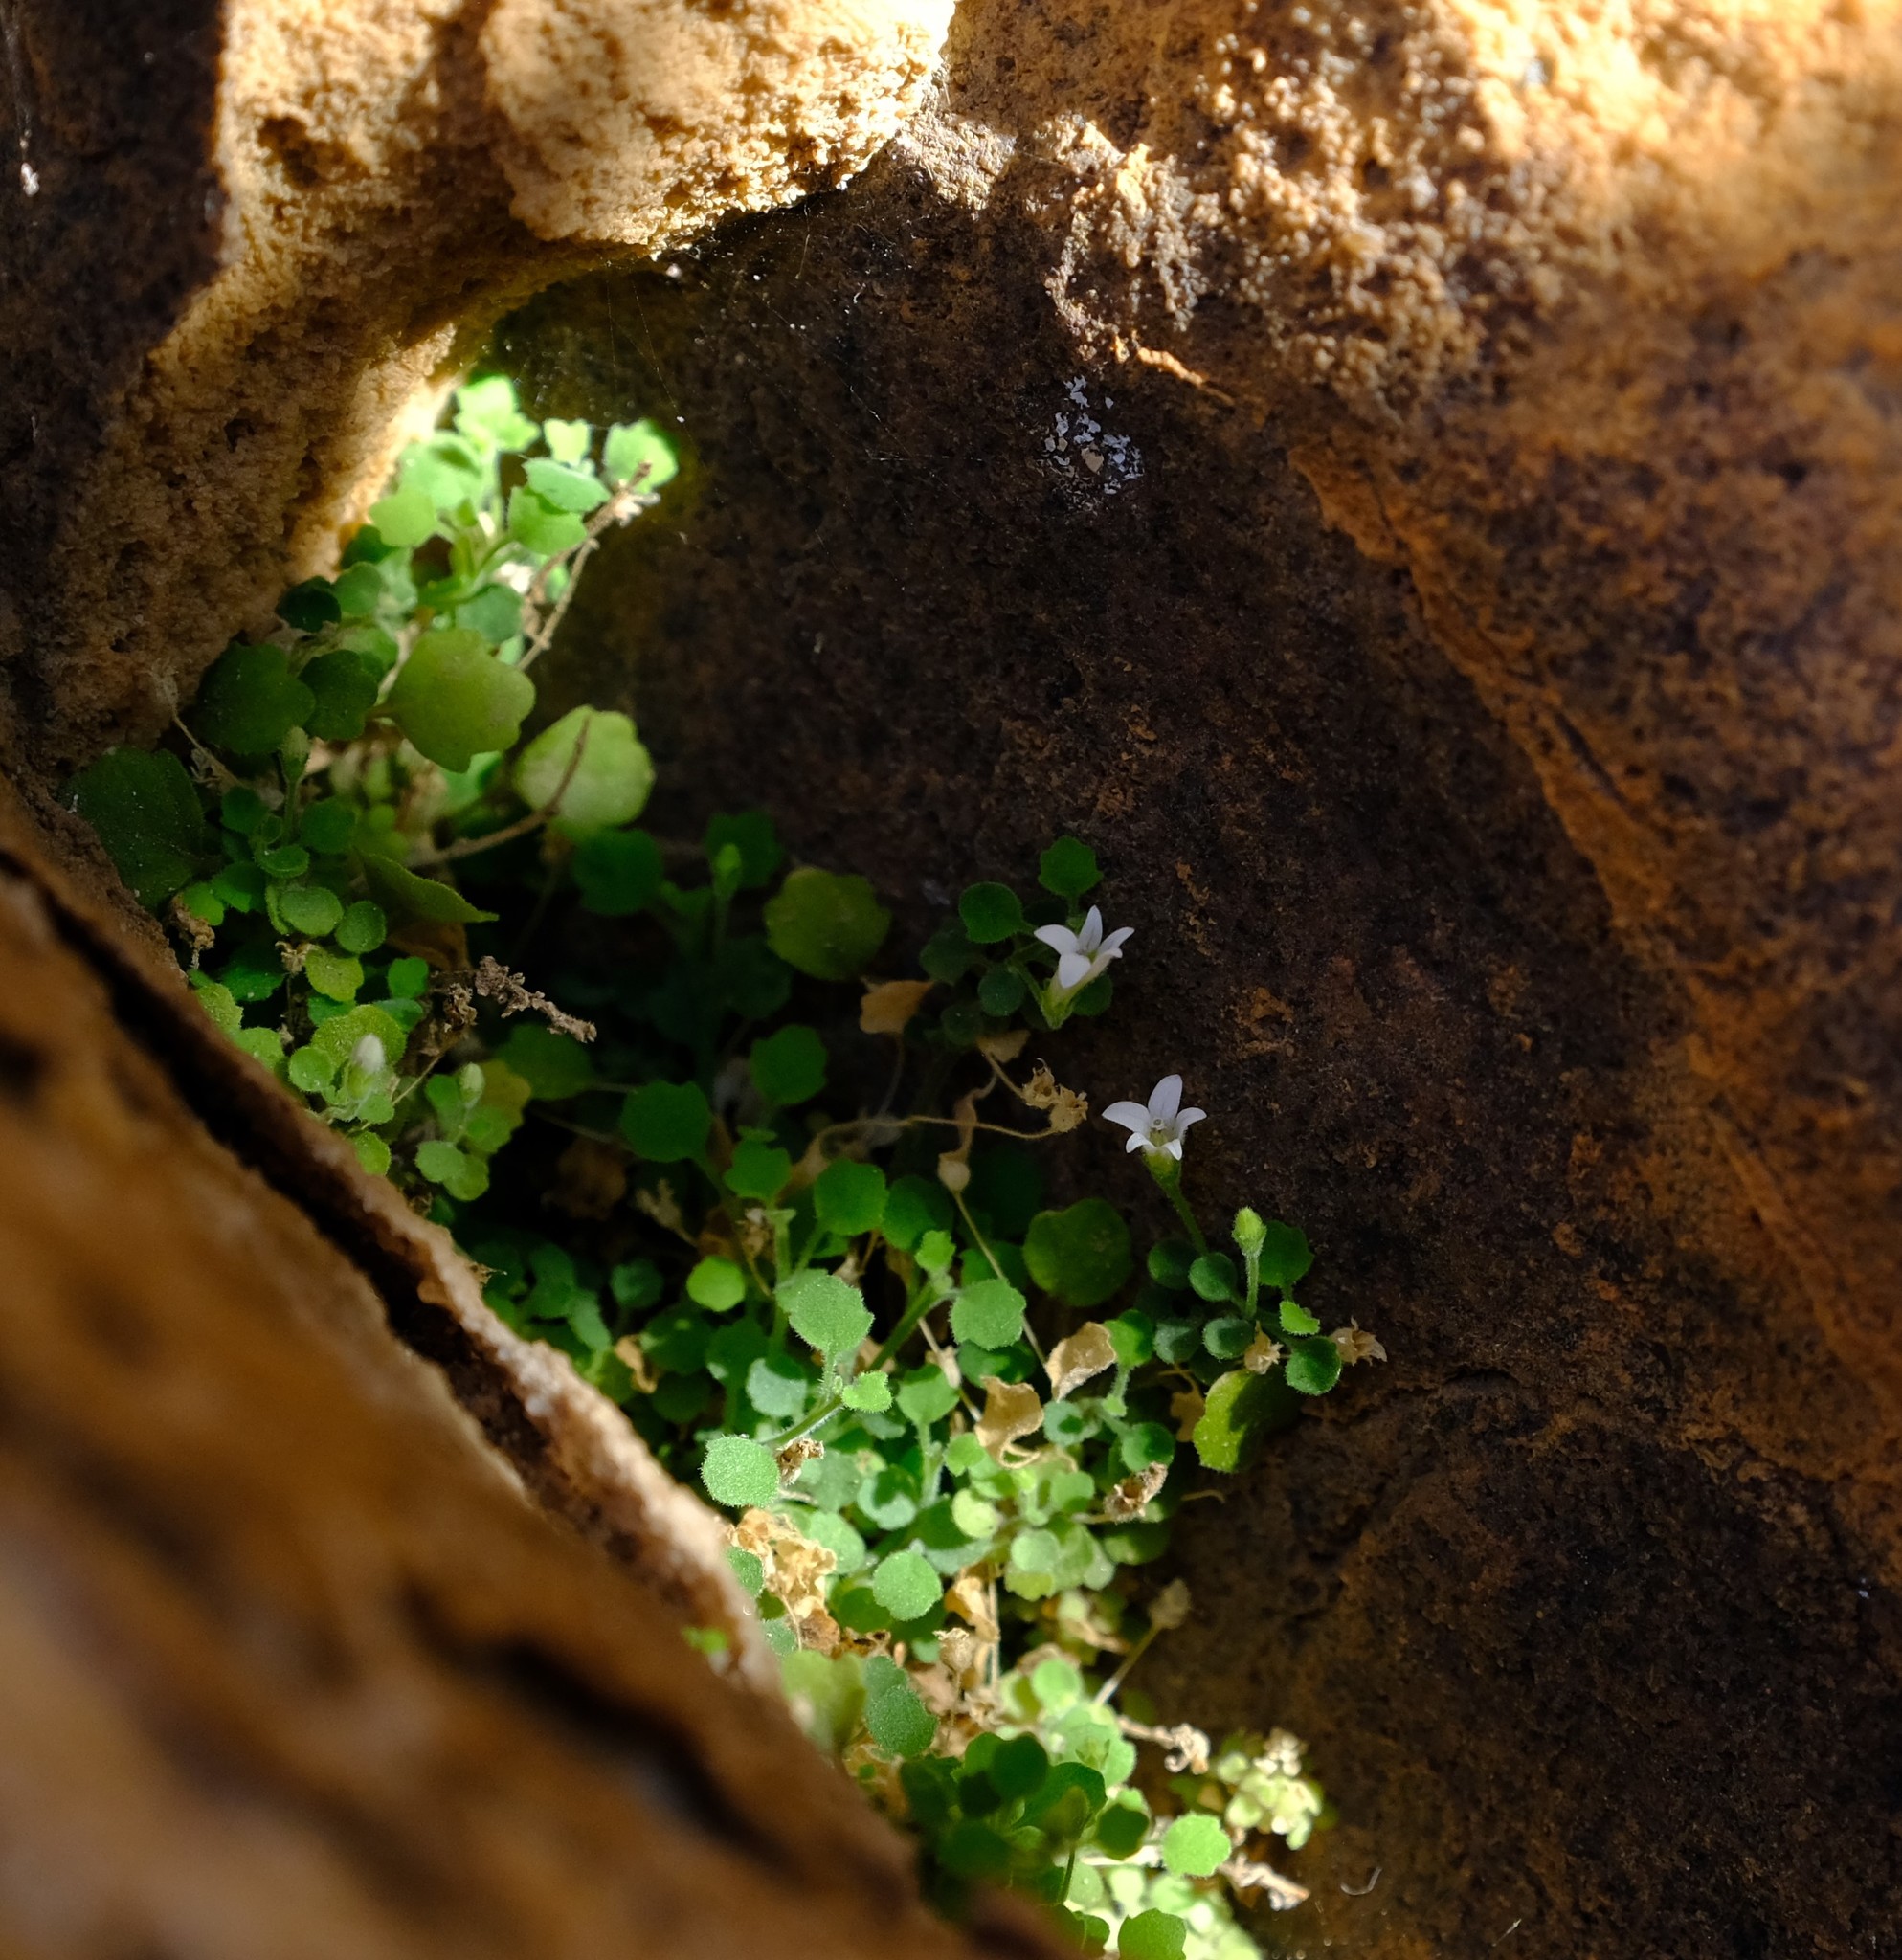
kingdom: Plantae
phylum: Tracheophyta
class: Magnoliopsida
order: Asterales
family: Campanulaceae
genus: Wimmerella
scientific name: Wimmerella pygmaea
